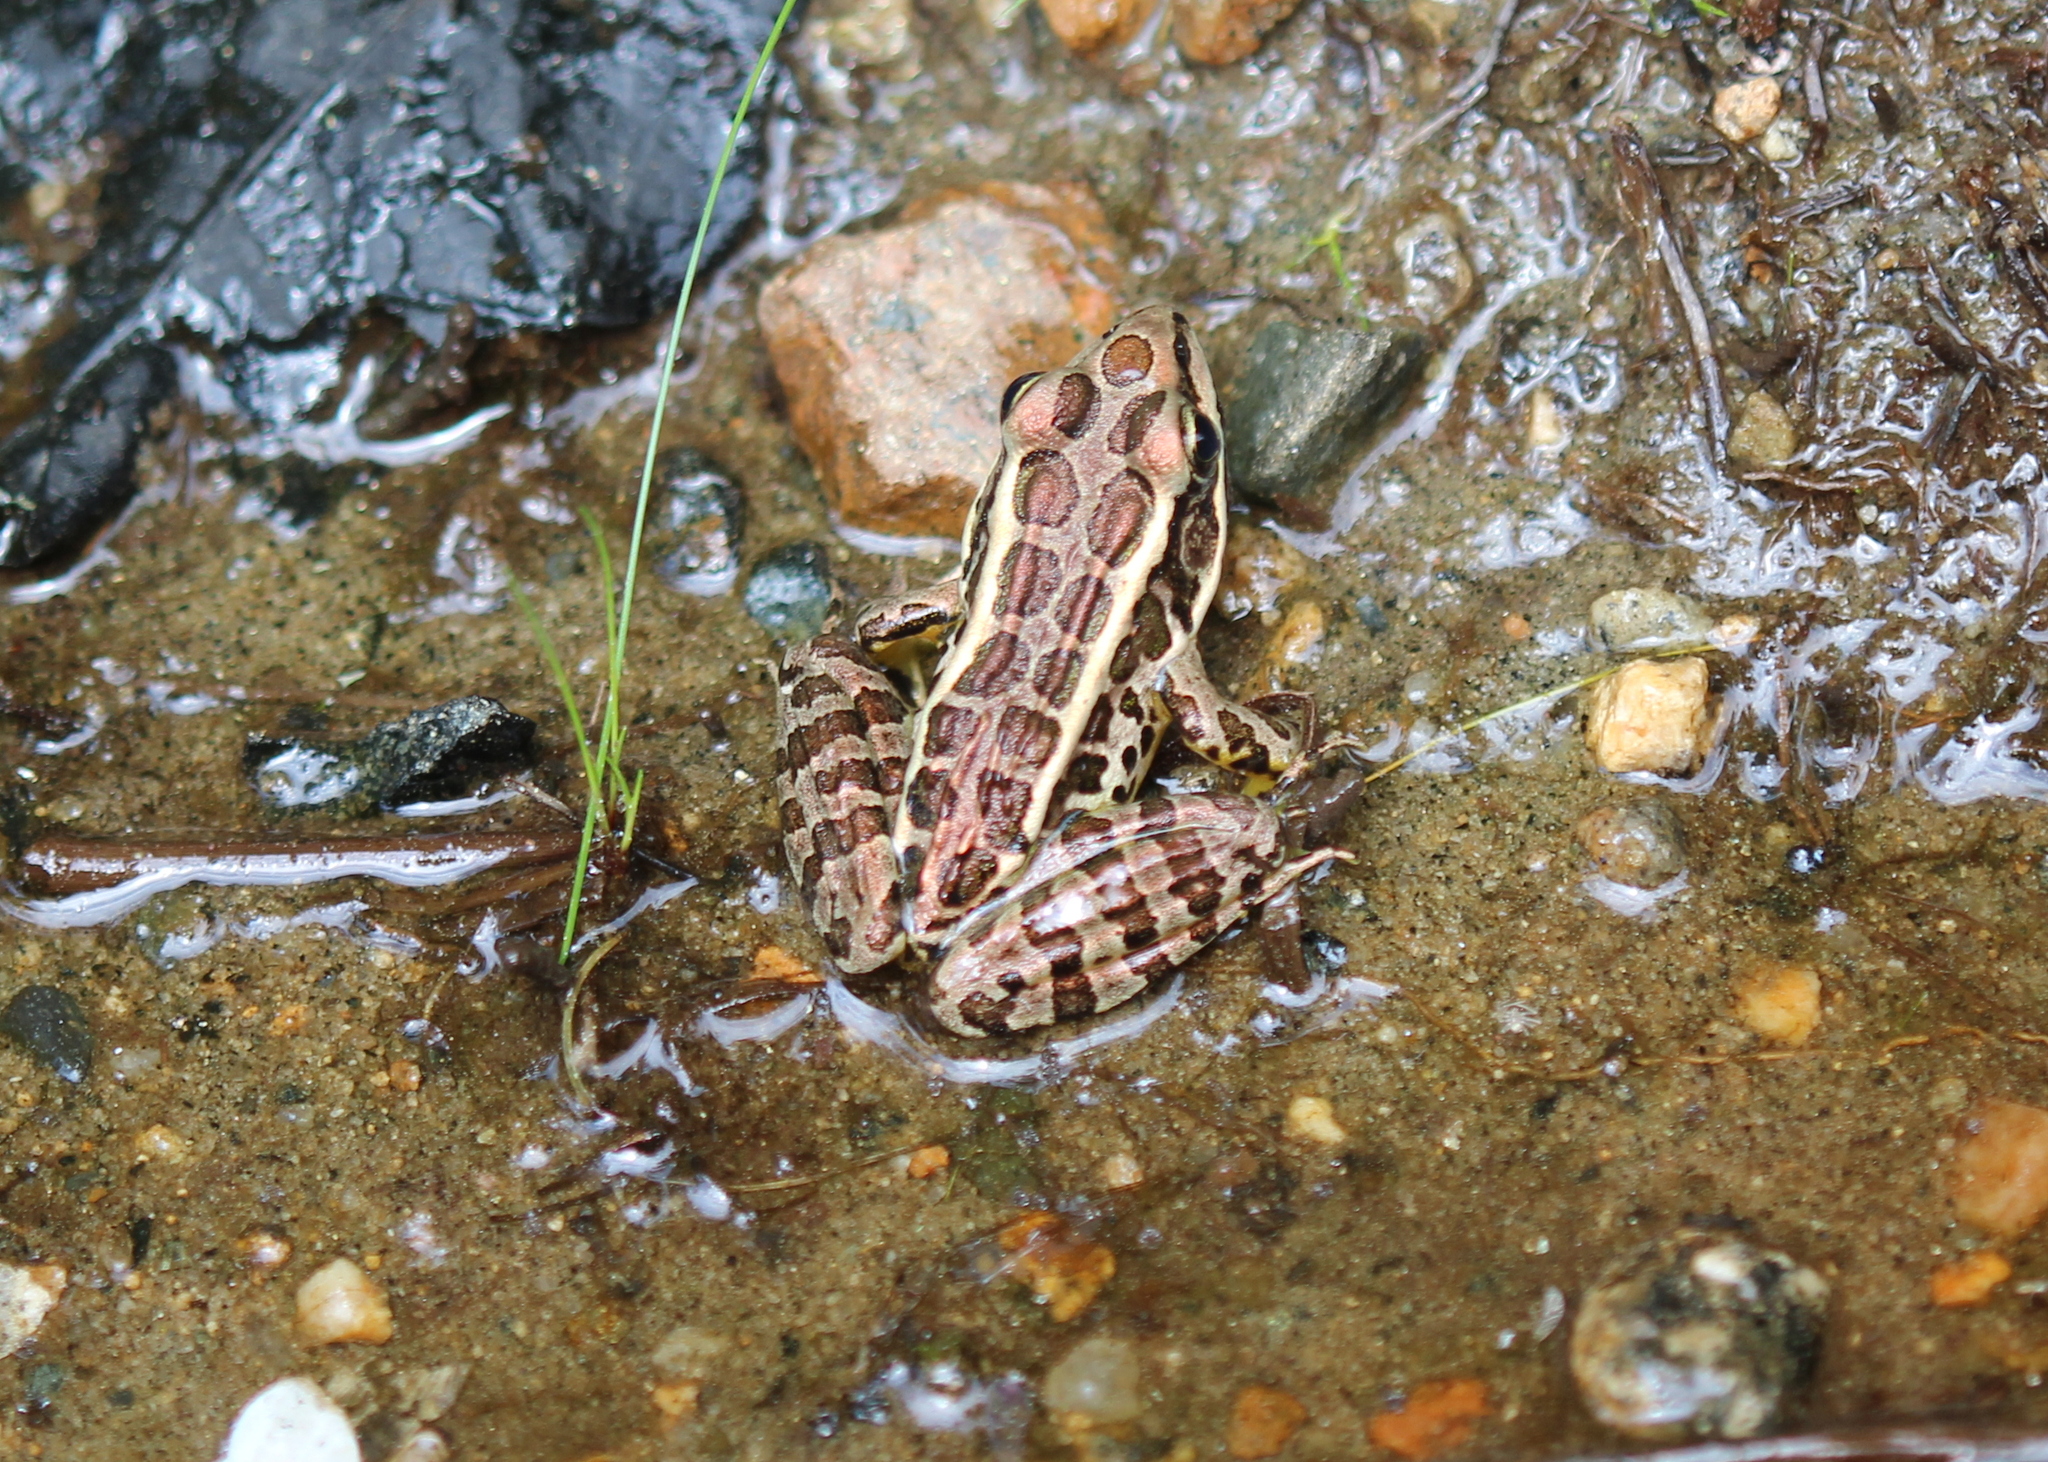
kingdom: Animalia
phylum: Chordata
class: Amphibia
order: Anura
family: Ranidae
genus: Lithobates
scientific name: Lithobates palustris
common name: Pickerel frog
